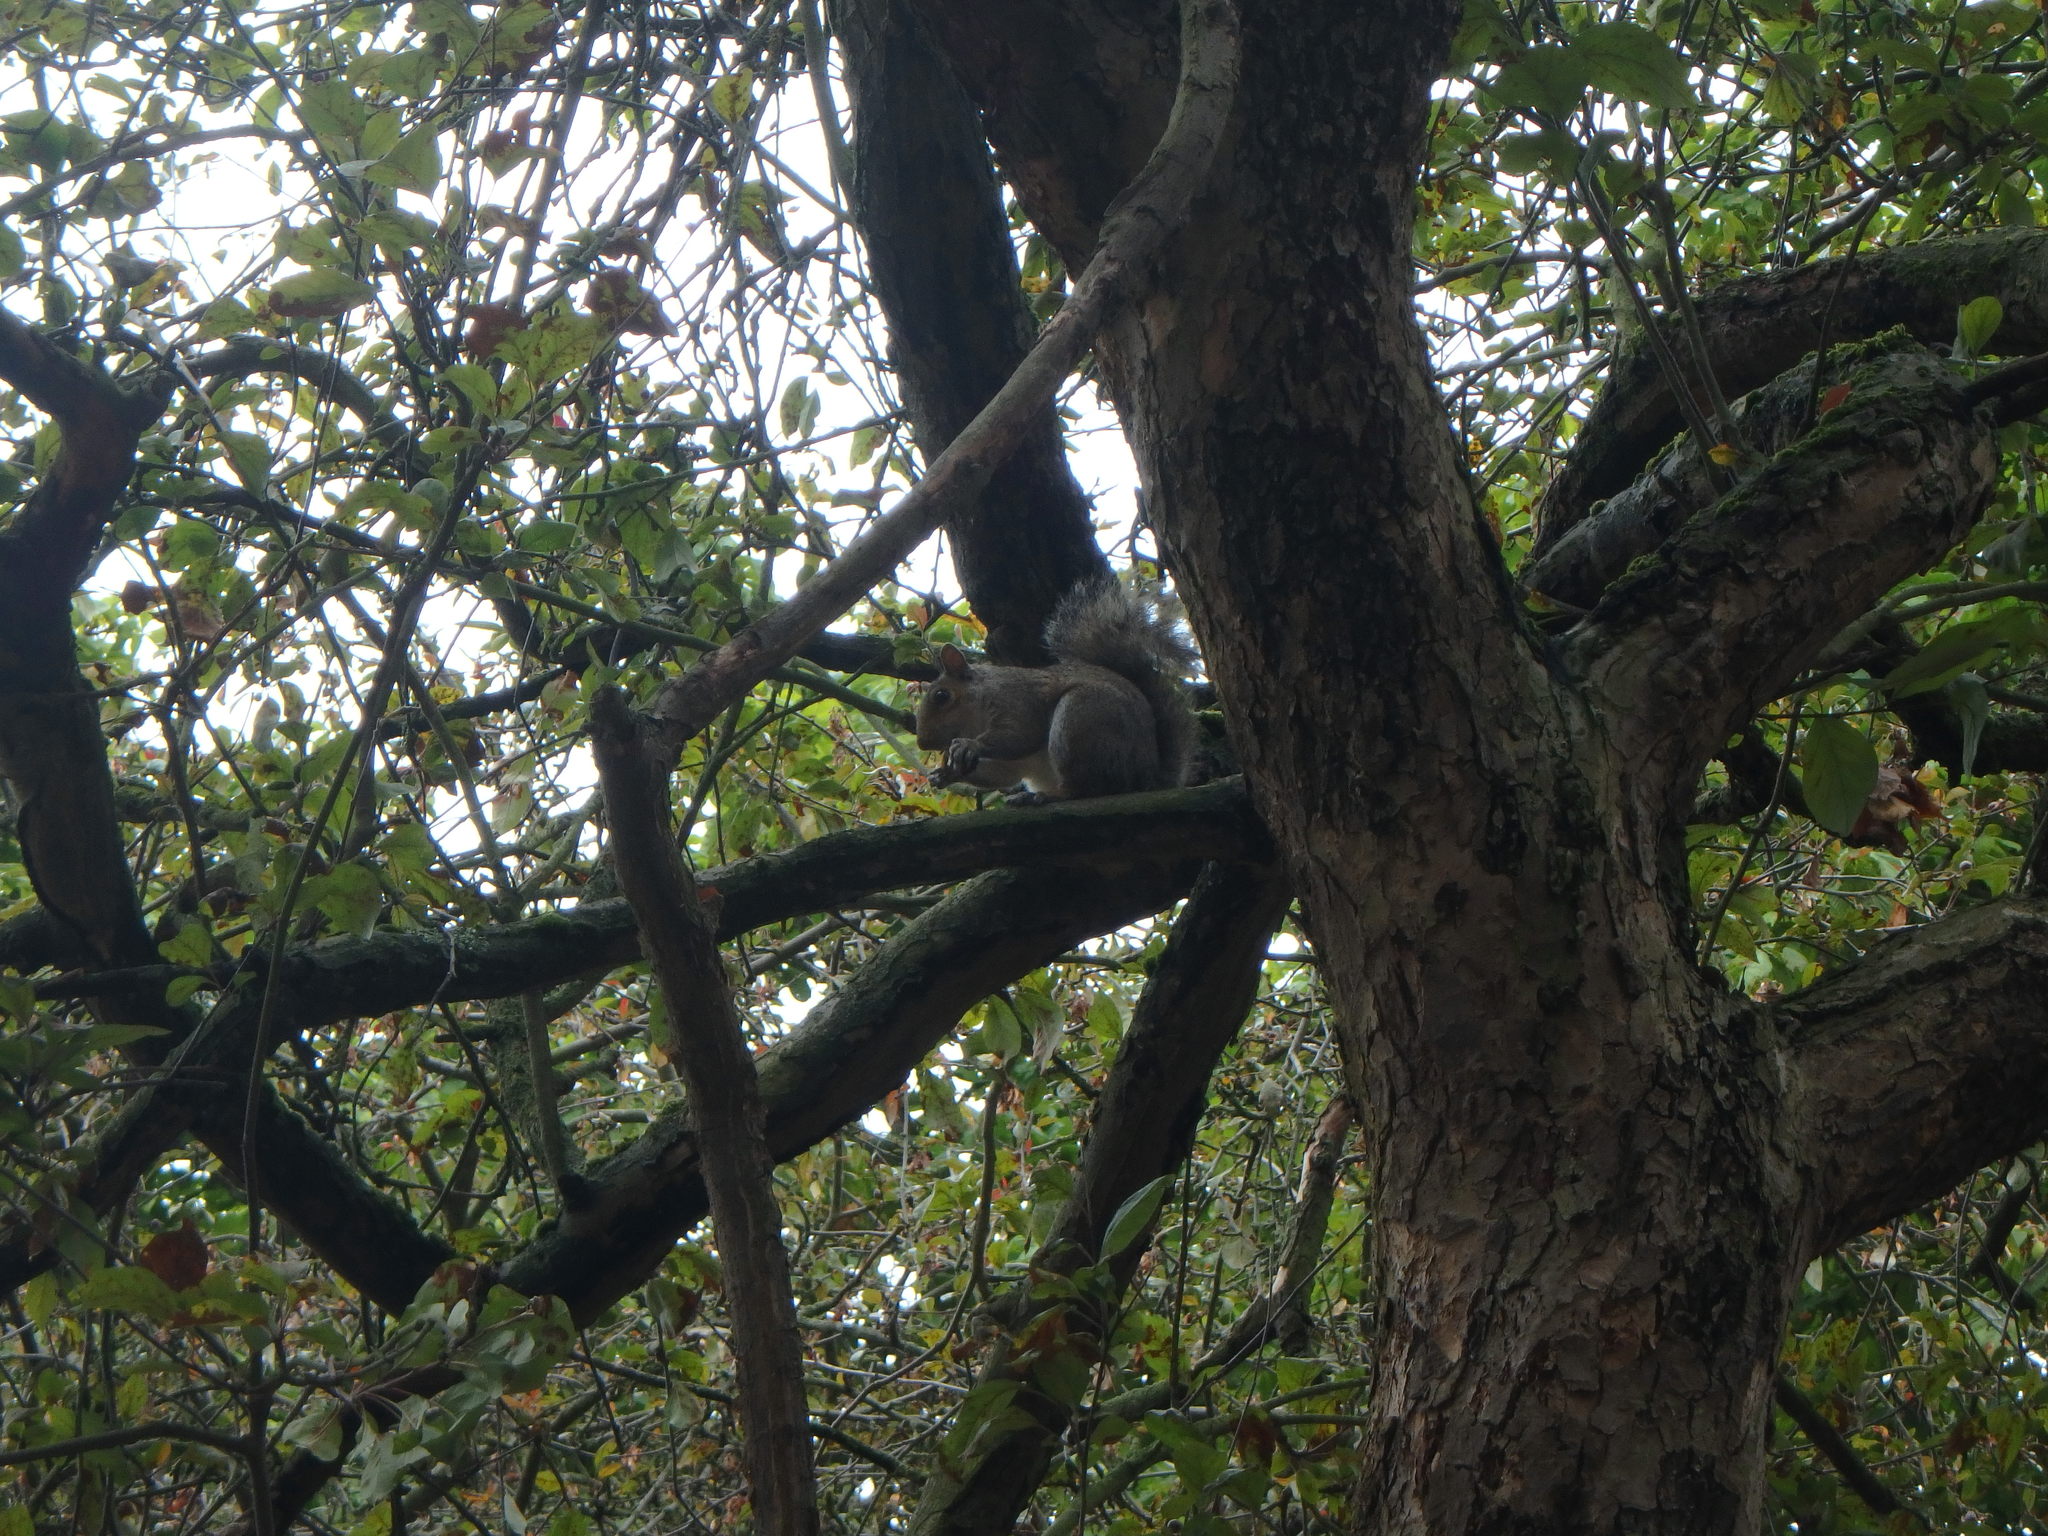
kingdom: Animalia
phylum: Chordata
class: Mammalia
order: Rodentia
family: Sciuridae
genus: Sciurus
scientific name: Sciurus carolinensis
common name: Eastern gray squirrel
